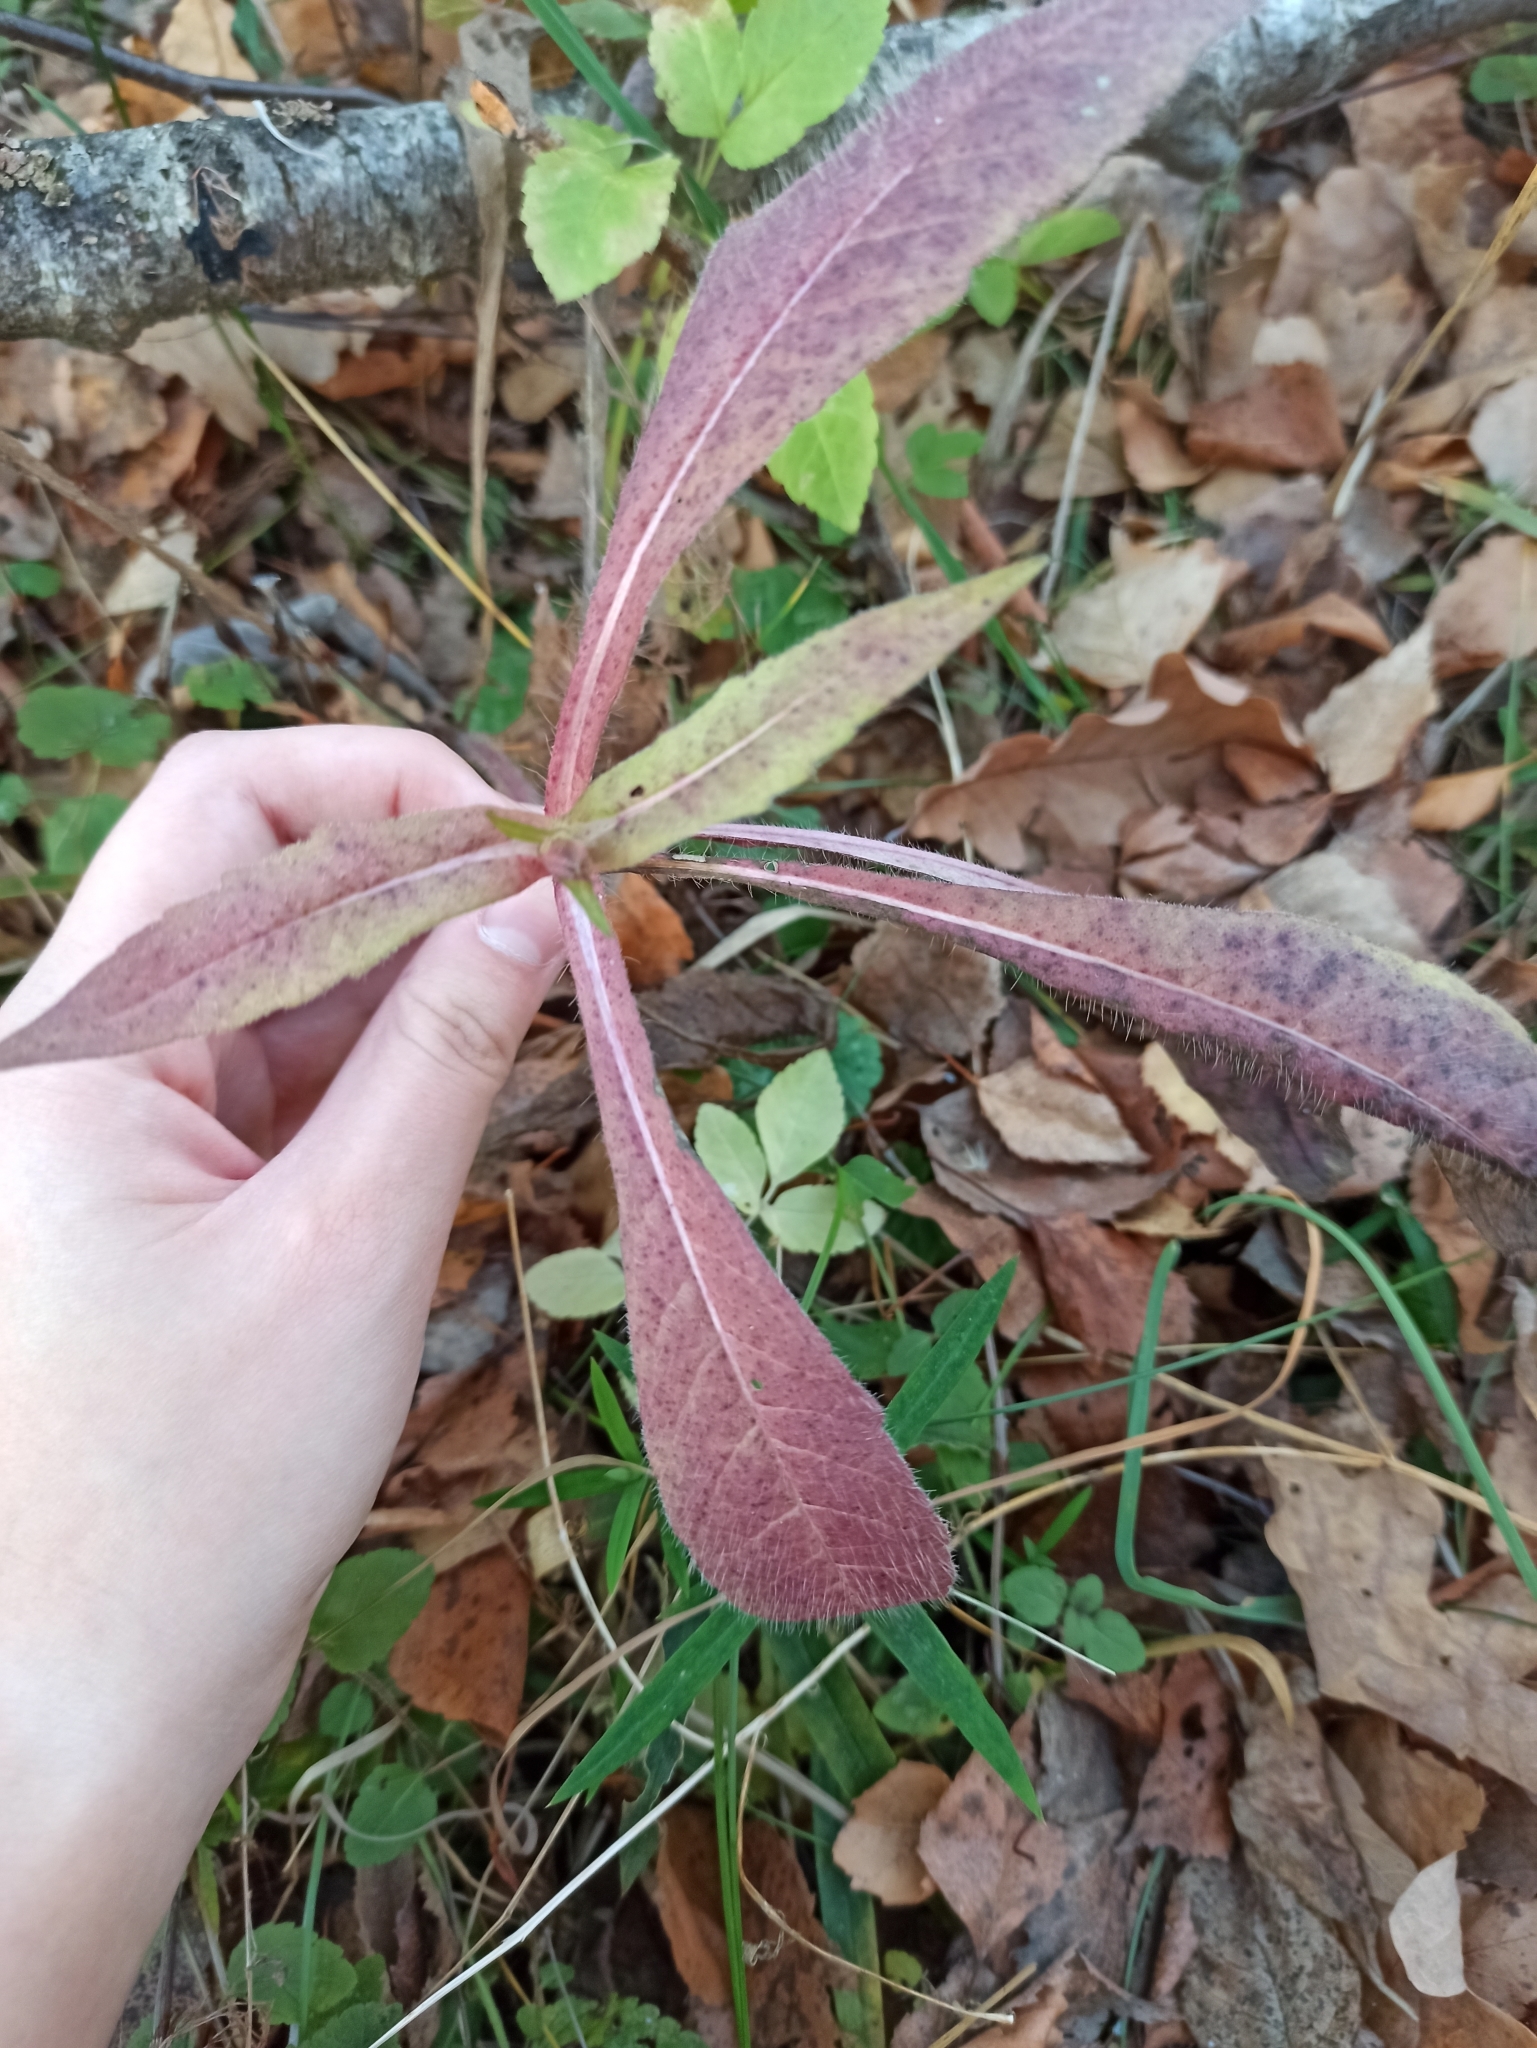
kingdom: Plantae
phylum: Tracheophyta
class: Magnoliopsida
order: Dipsacales
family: Caprifoliaceae
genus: Knautia
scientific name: Knautia arvensis
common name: Field scabiosa
